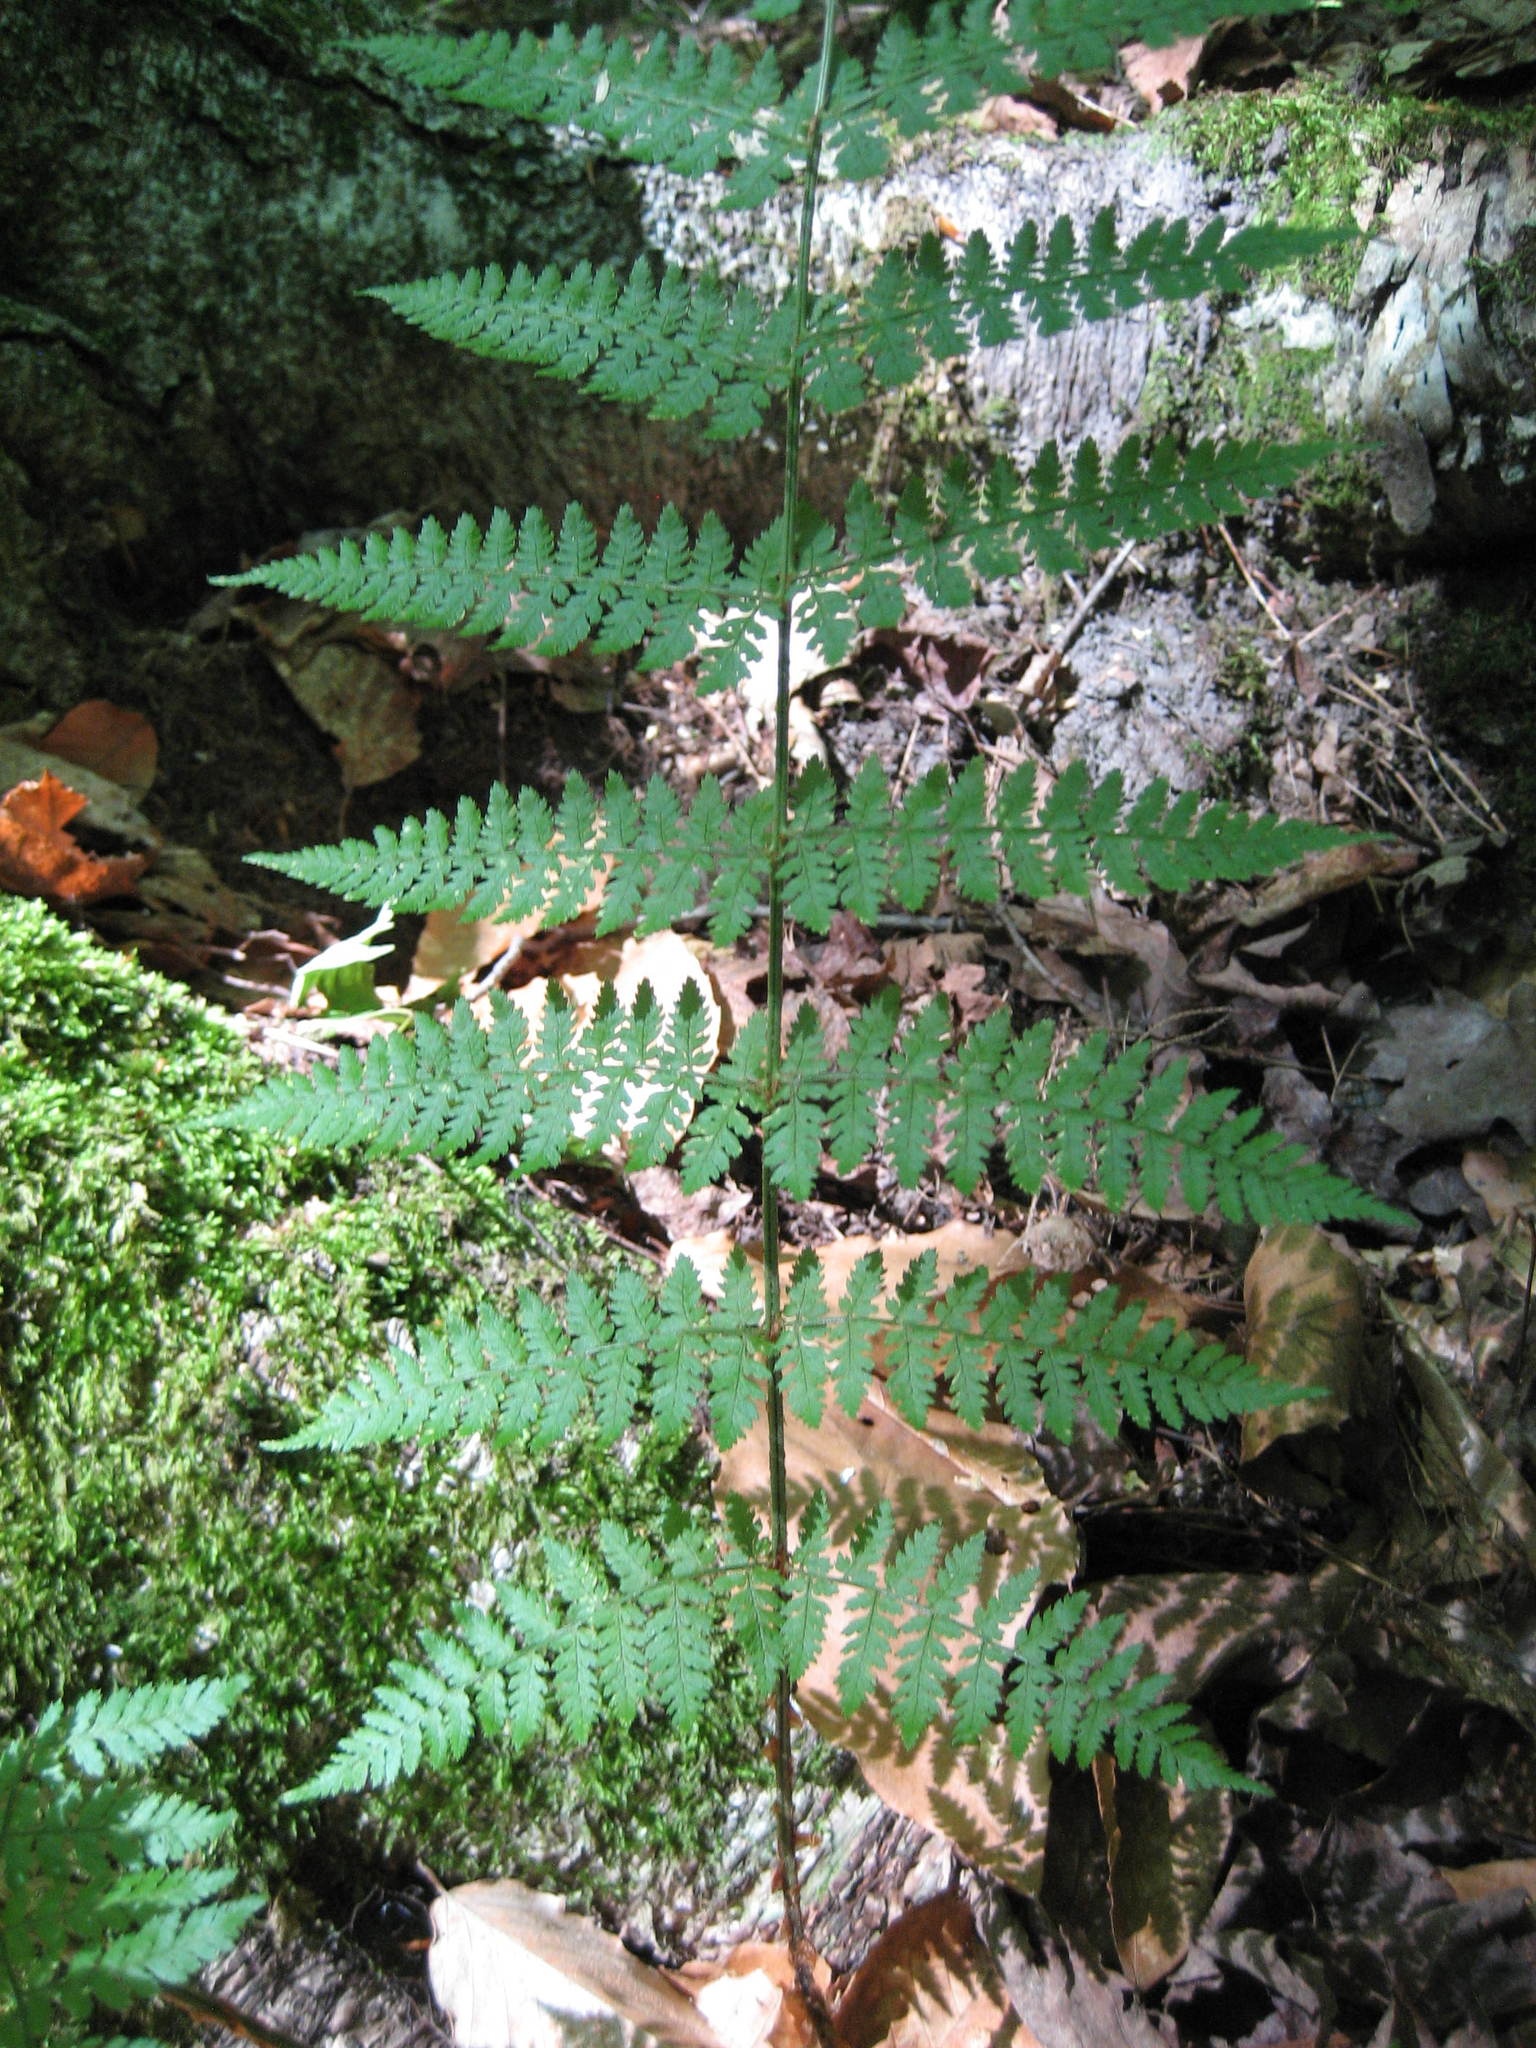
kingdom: Plantae
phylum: Tracheophyta
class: Polypodiopsida
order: Polypodiales
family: Dryopteridaceae
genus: Dryopteris
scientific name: Dryopteris intermedia
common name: Evergreen wood fern
